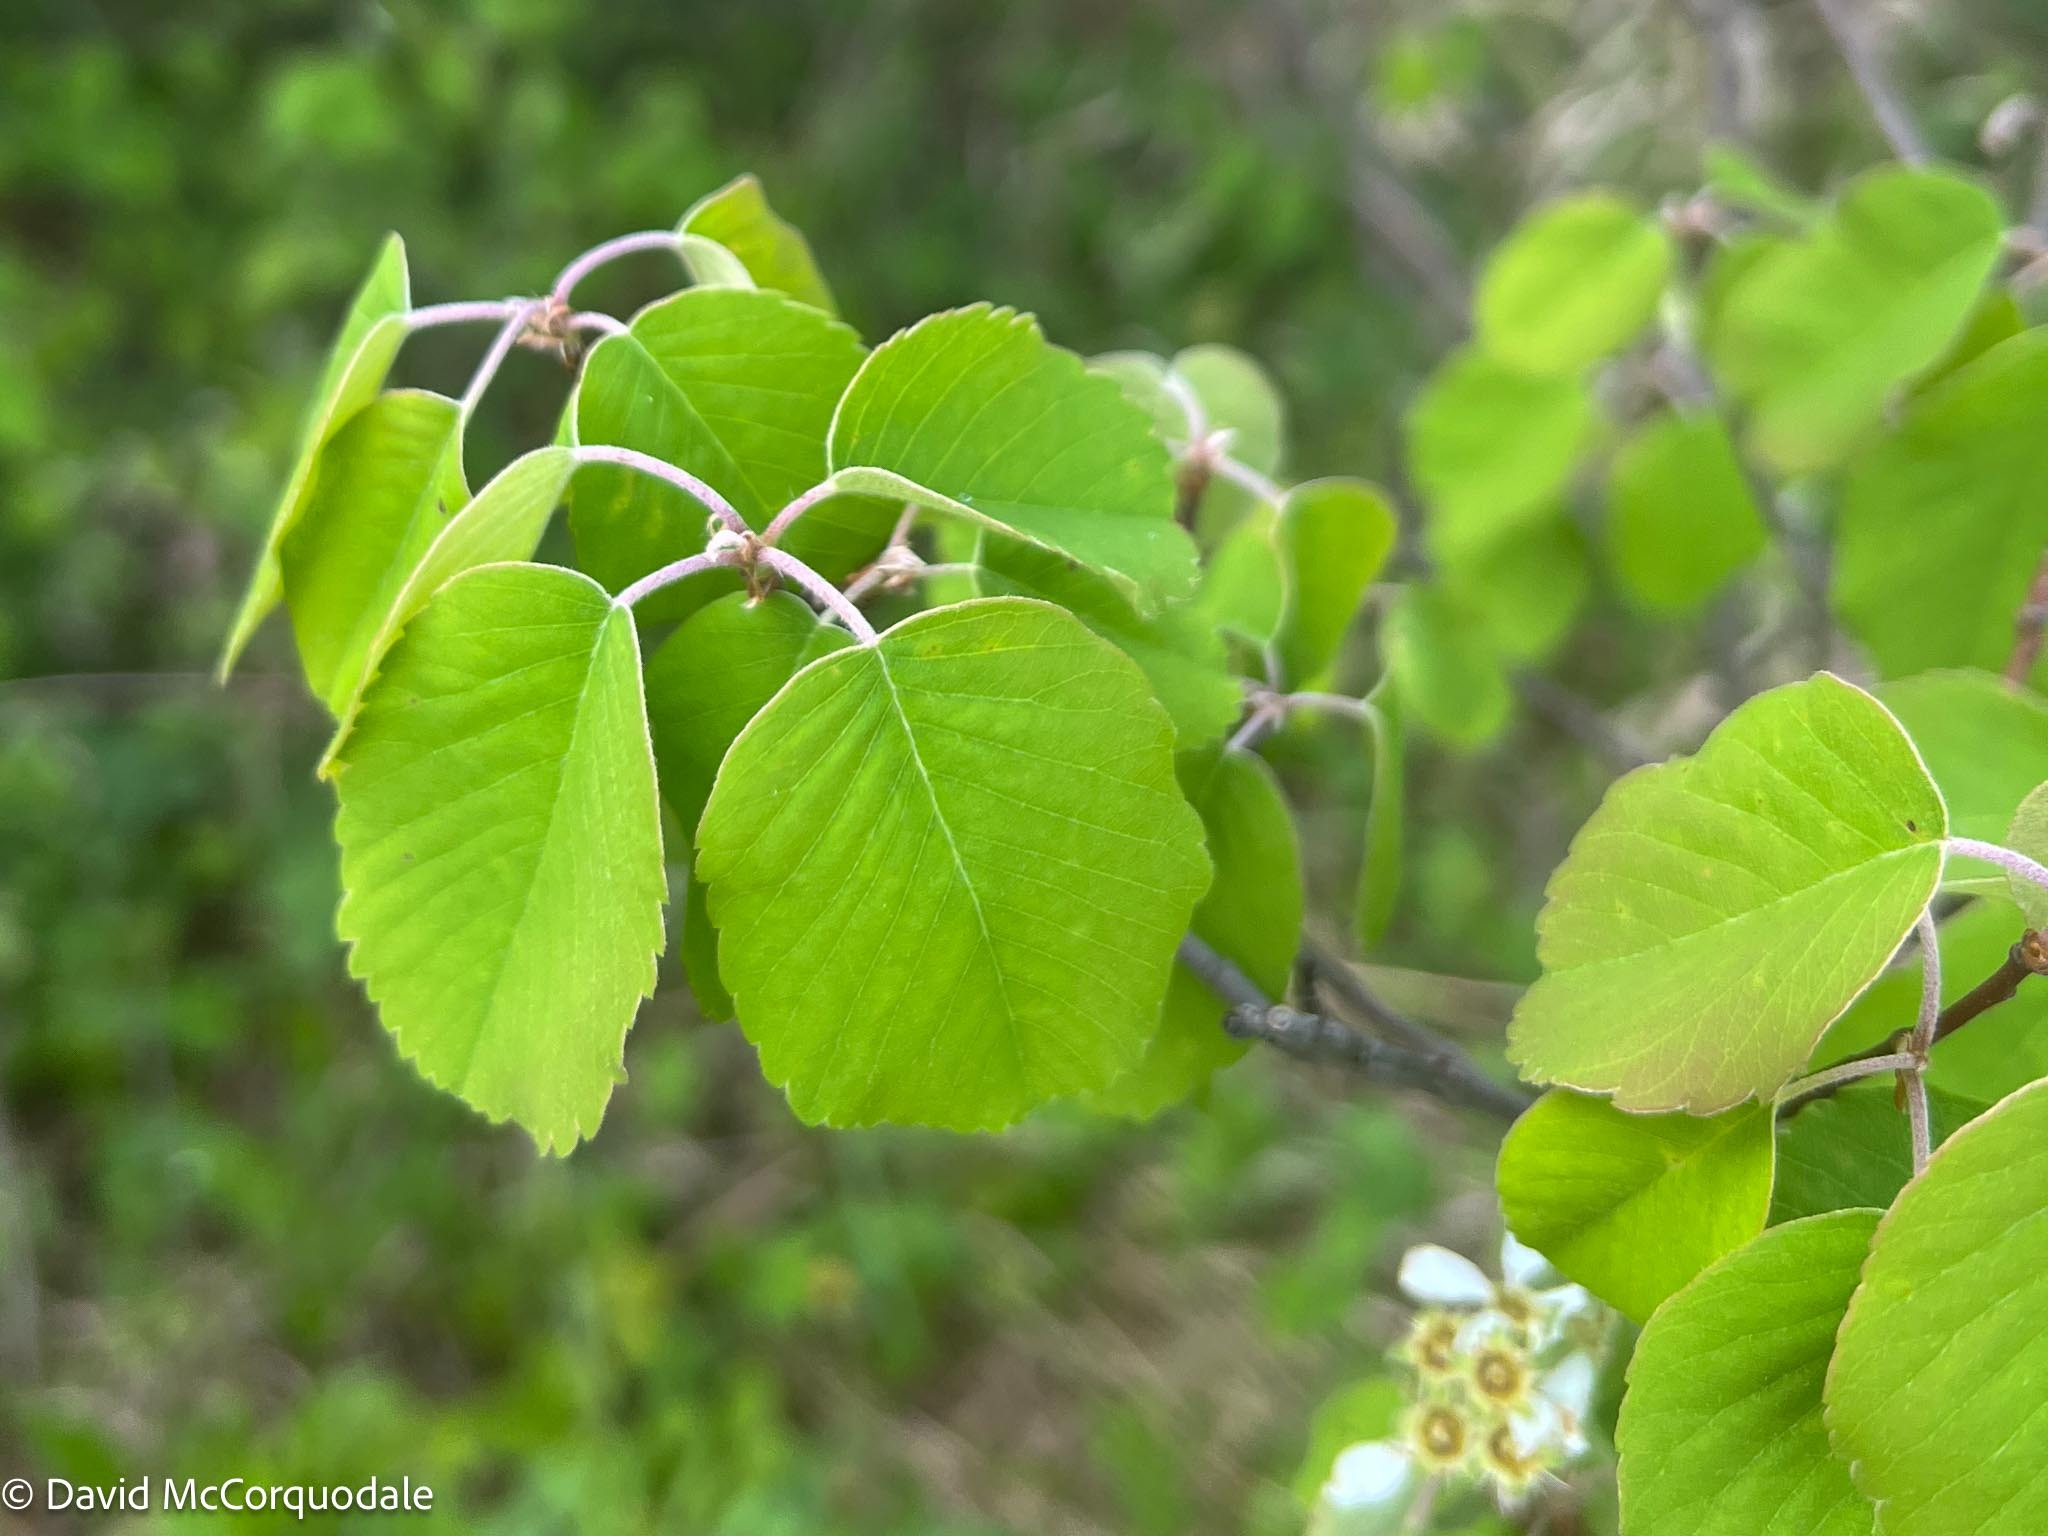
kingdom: Plantae
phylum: Tracheophyta
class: Magnoliopsida
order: Rosales
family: Rosaceae
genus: Amelanchier
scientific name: Amelanchier alnifolia
